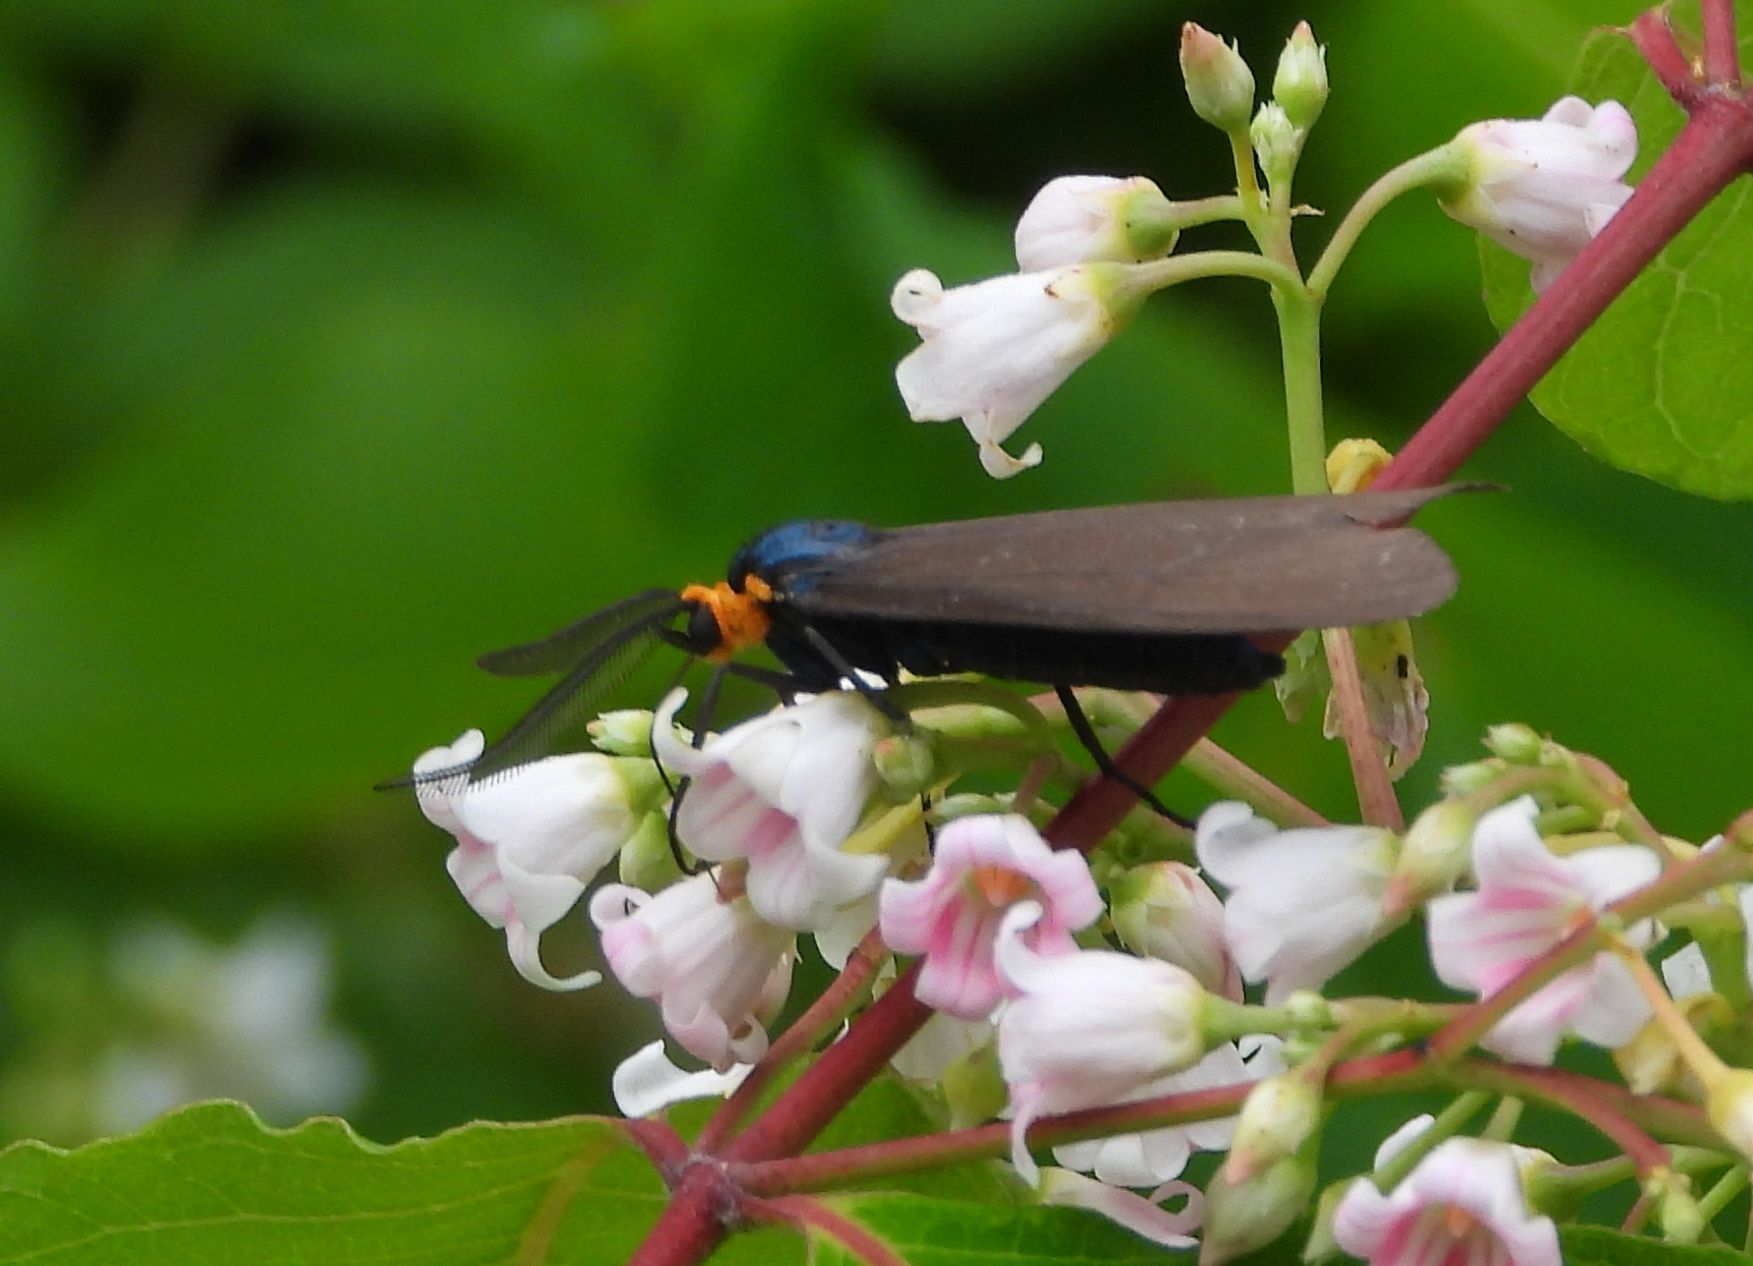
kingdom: Animalia
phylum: Arthropoda
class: Insecta
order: Lepidoptera
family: Erebidae
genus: Ctenucha
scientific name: Ctenucha virginica
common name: Virginia ctenucha moth
